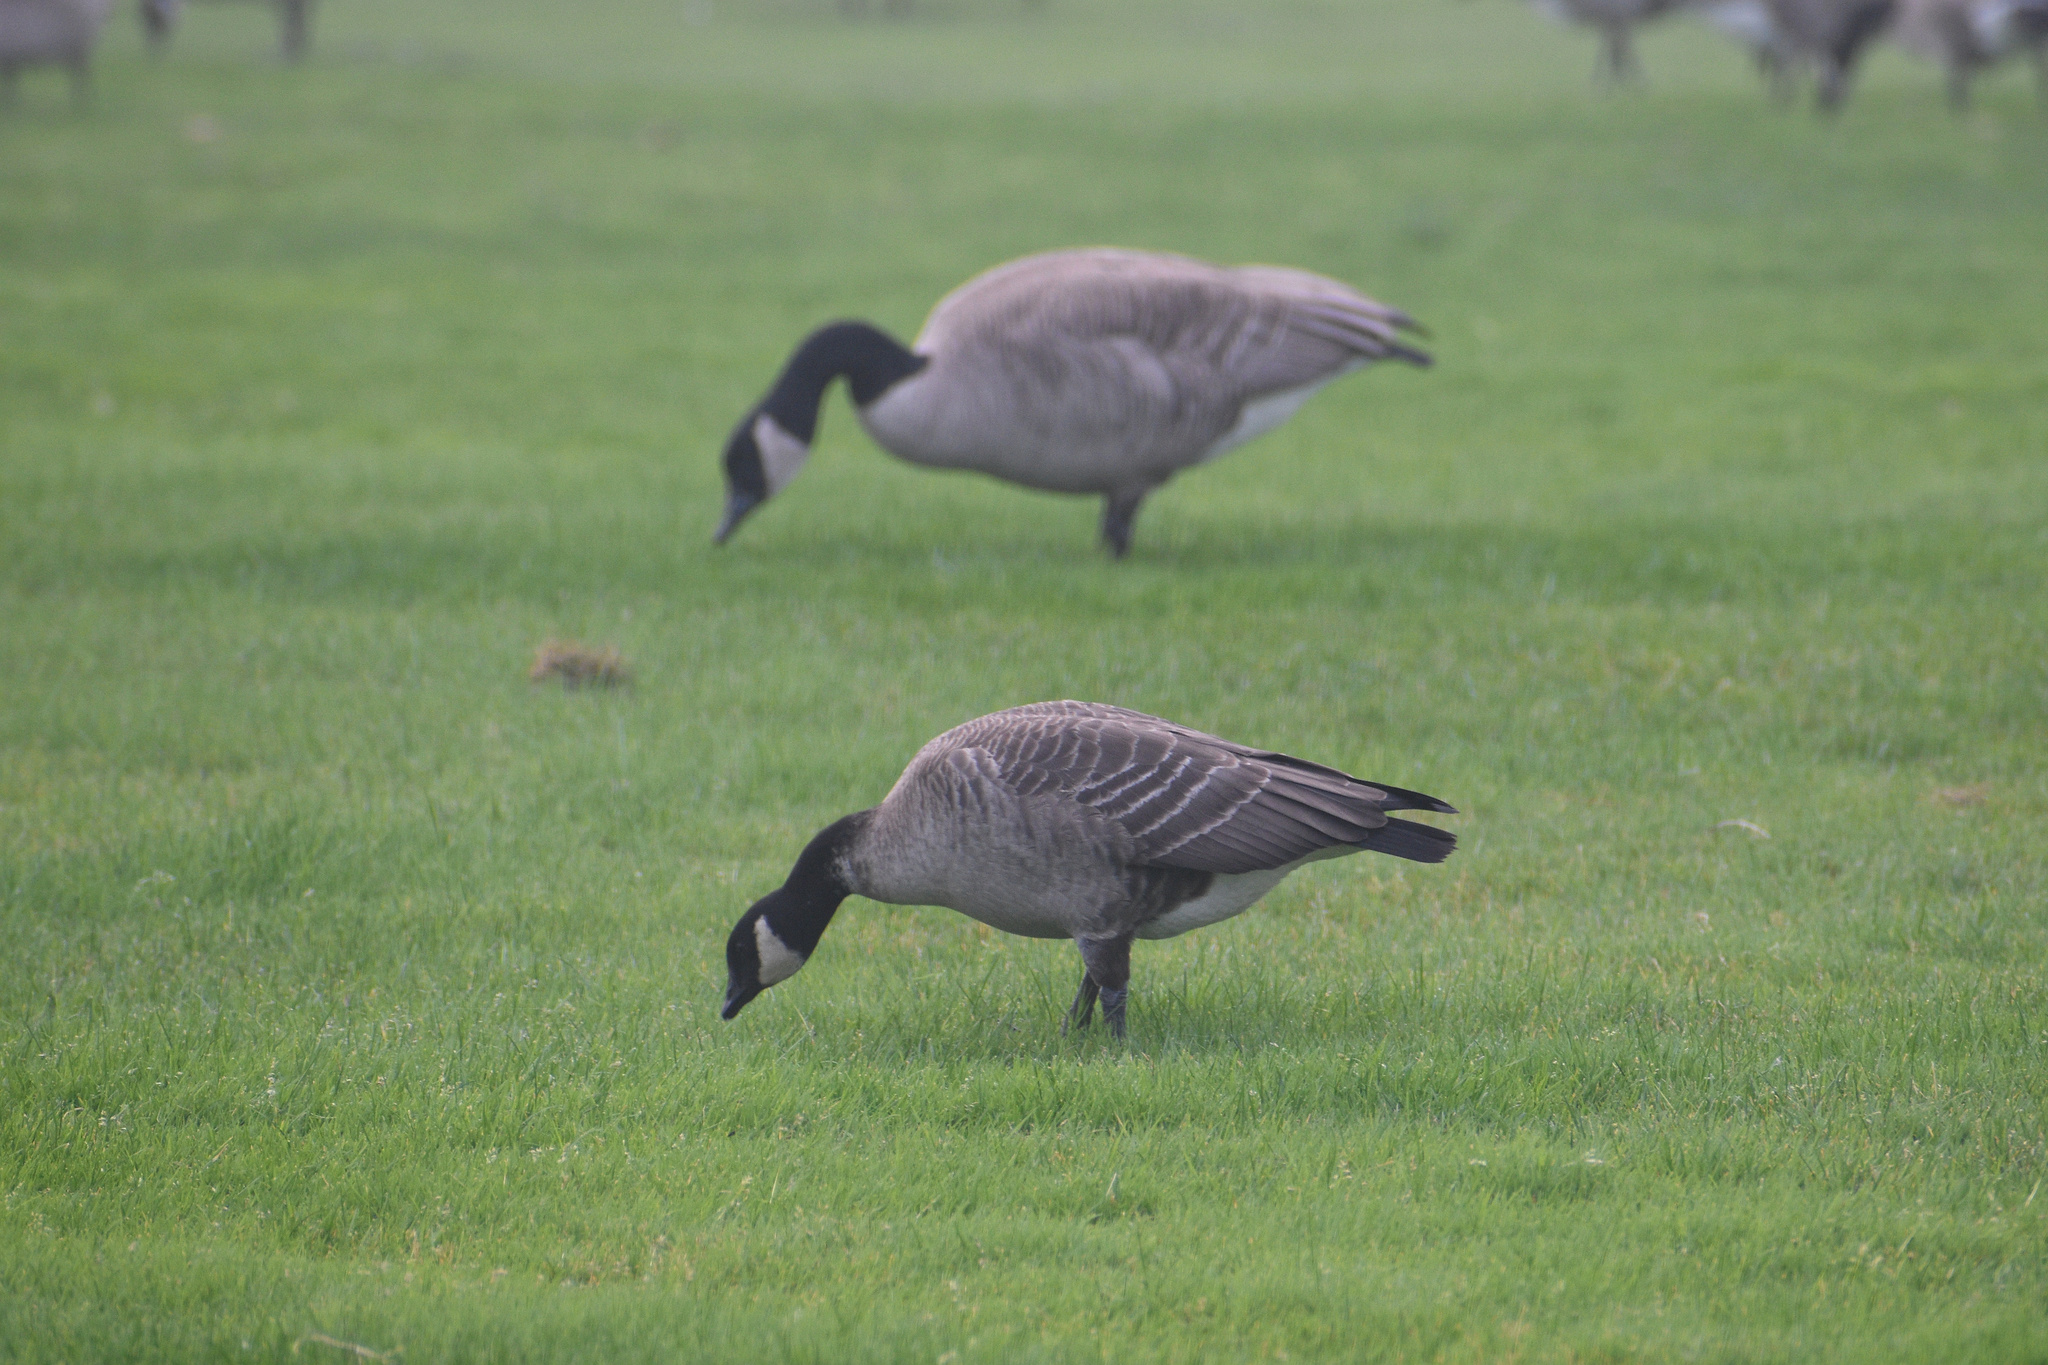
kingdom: Animalia
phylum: Chordata
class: Aves
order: Anseriformes
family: Anatidae
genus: Branta
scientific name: Branta hutchinsii
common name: Cackling goose
